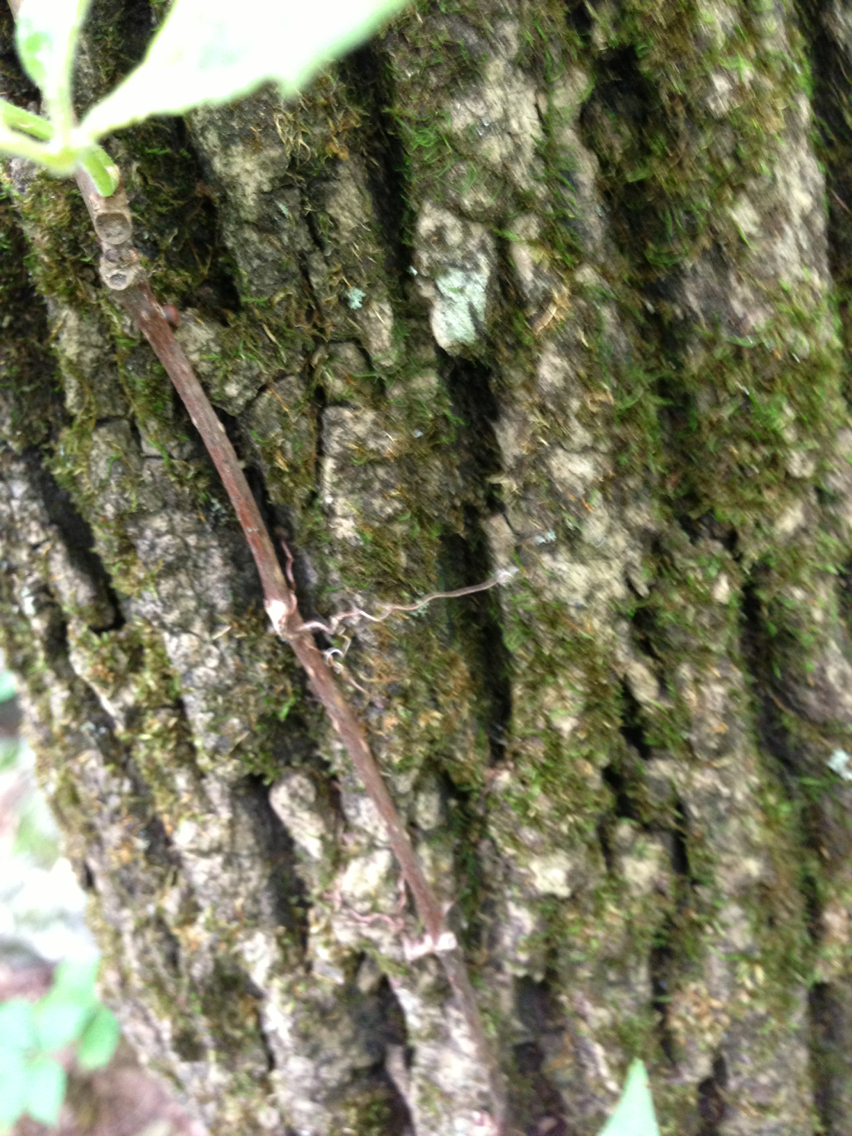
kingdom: Plantae
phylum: Tracheophyta
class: Magnoliopsida
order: Vitales
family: Vitaceae
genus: Parthenocissus
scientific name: Parthenocissus quinquefolia
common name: Virginia-creeper
